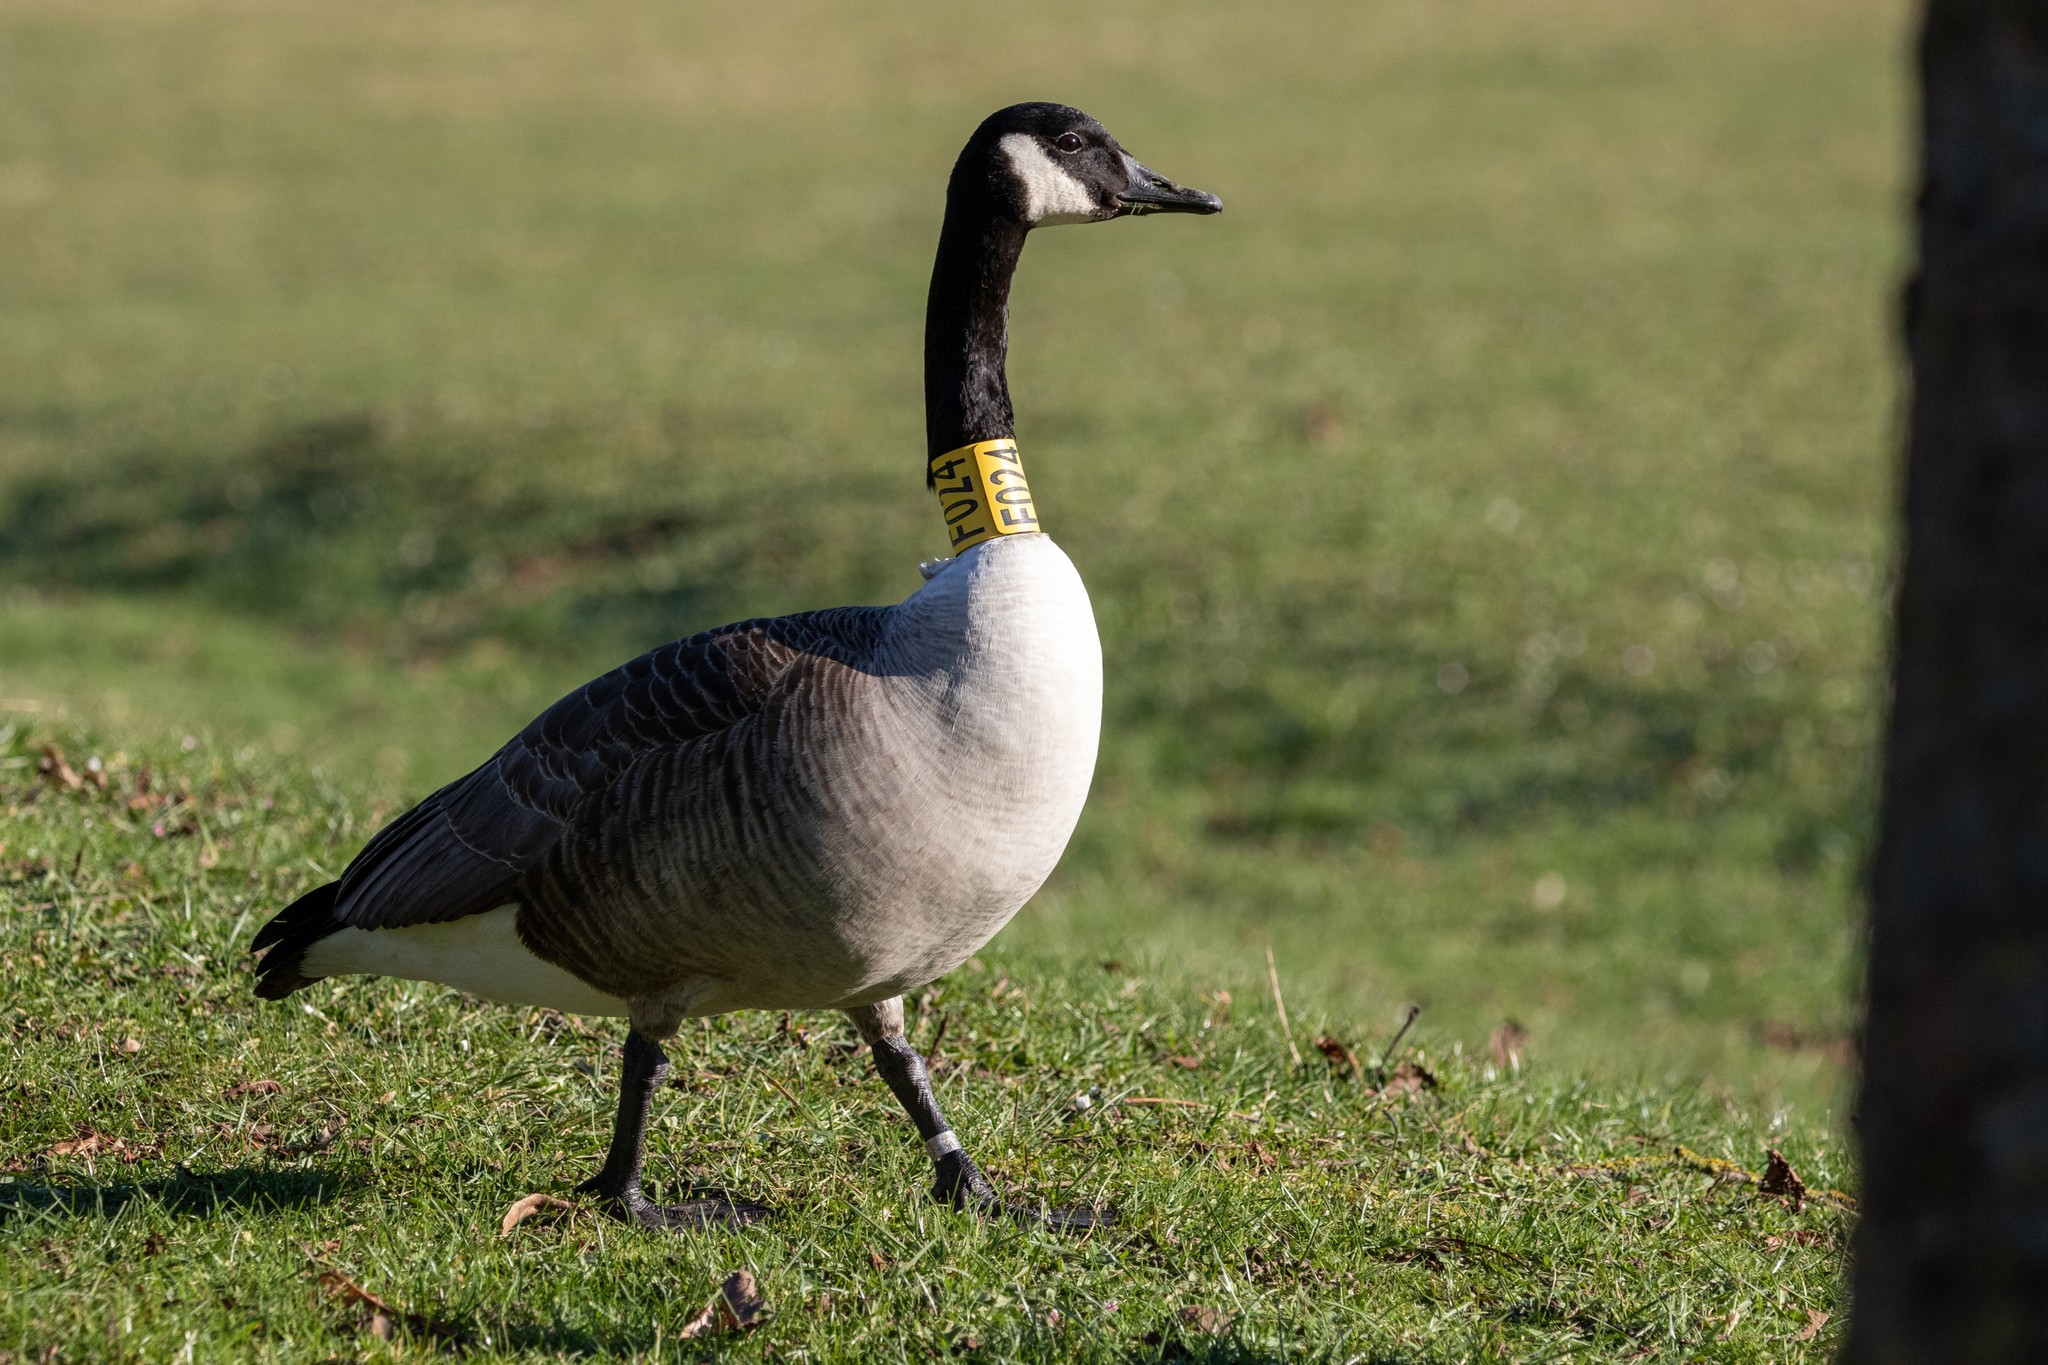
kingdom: Animalia
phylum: Chordata
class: Aves
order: Anseriformes
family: Anatidae
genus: Branta
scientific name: Branta canadensis
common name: Canada goose
